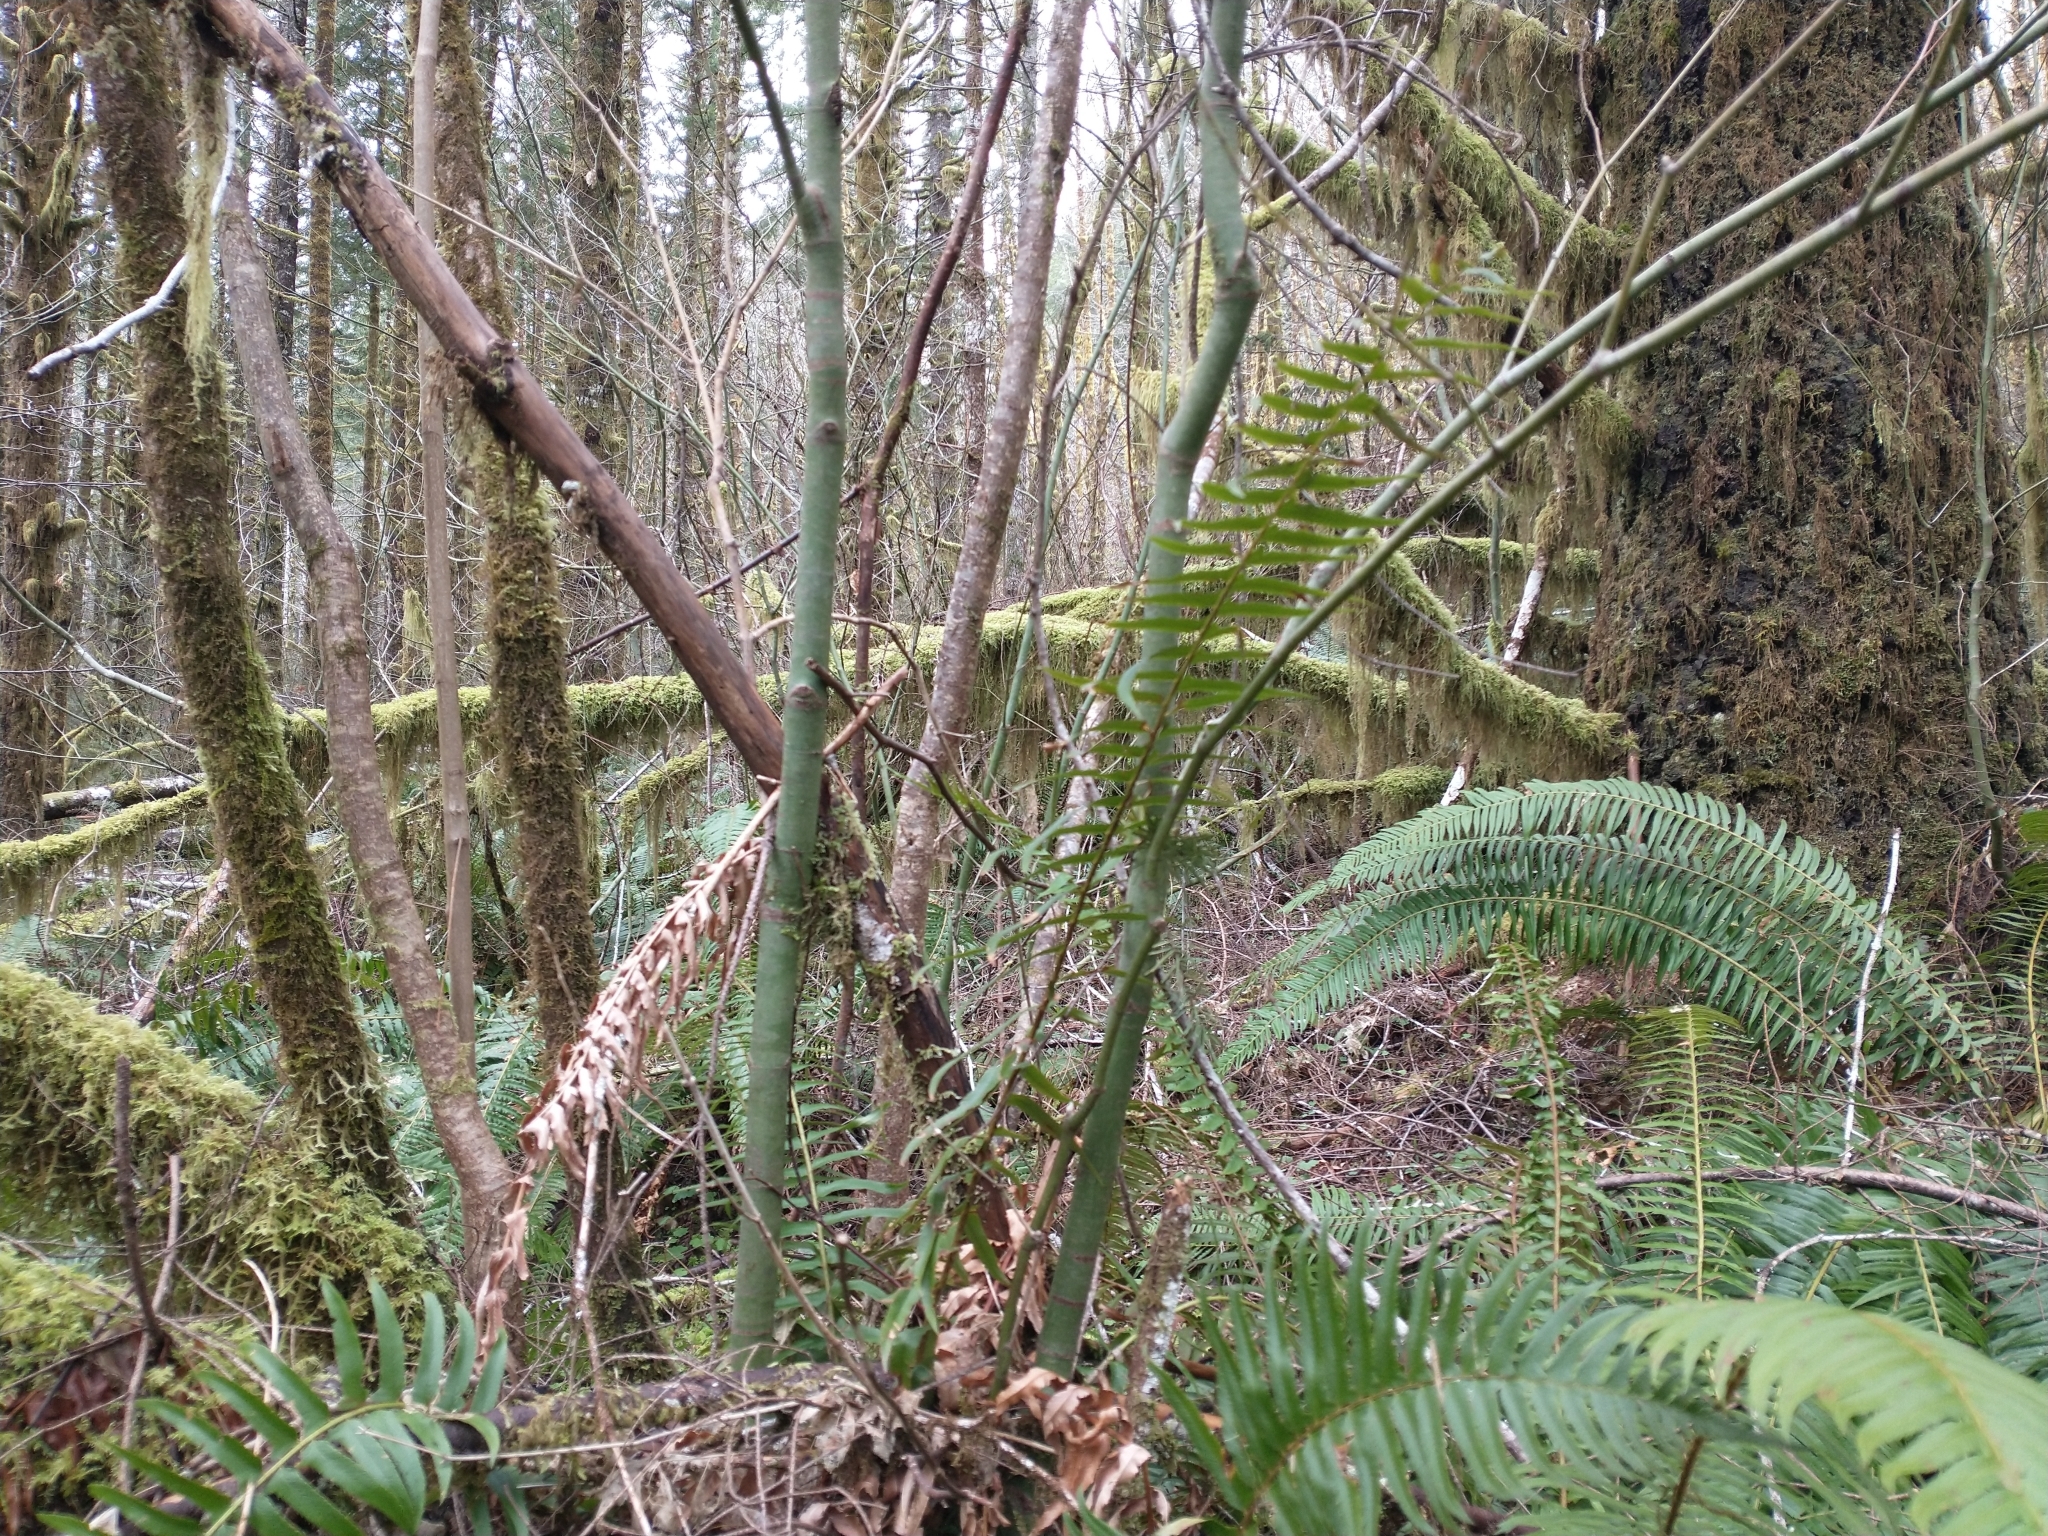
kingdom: Plantae
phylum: Tracheophyta
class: Magnoliopsida
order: Sapindales
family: Sapindaceae
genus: Acer
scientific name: Acer circinatum
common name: Vine maple
